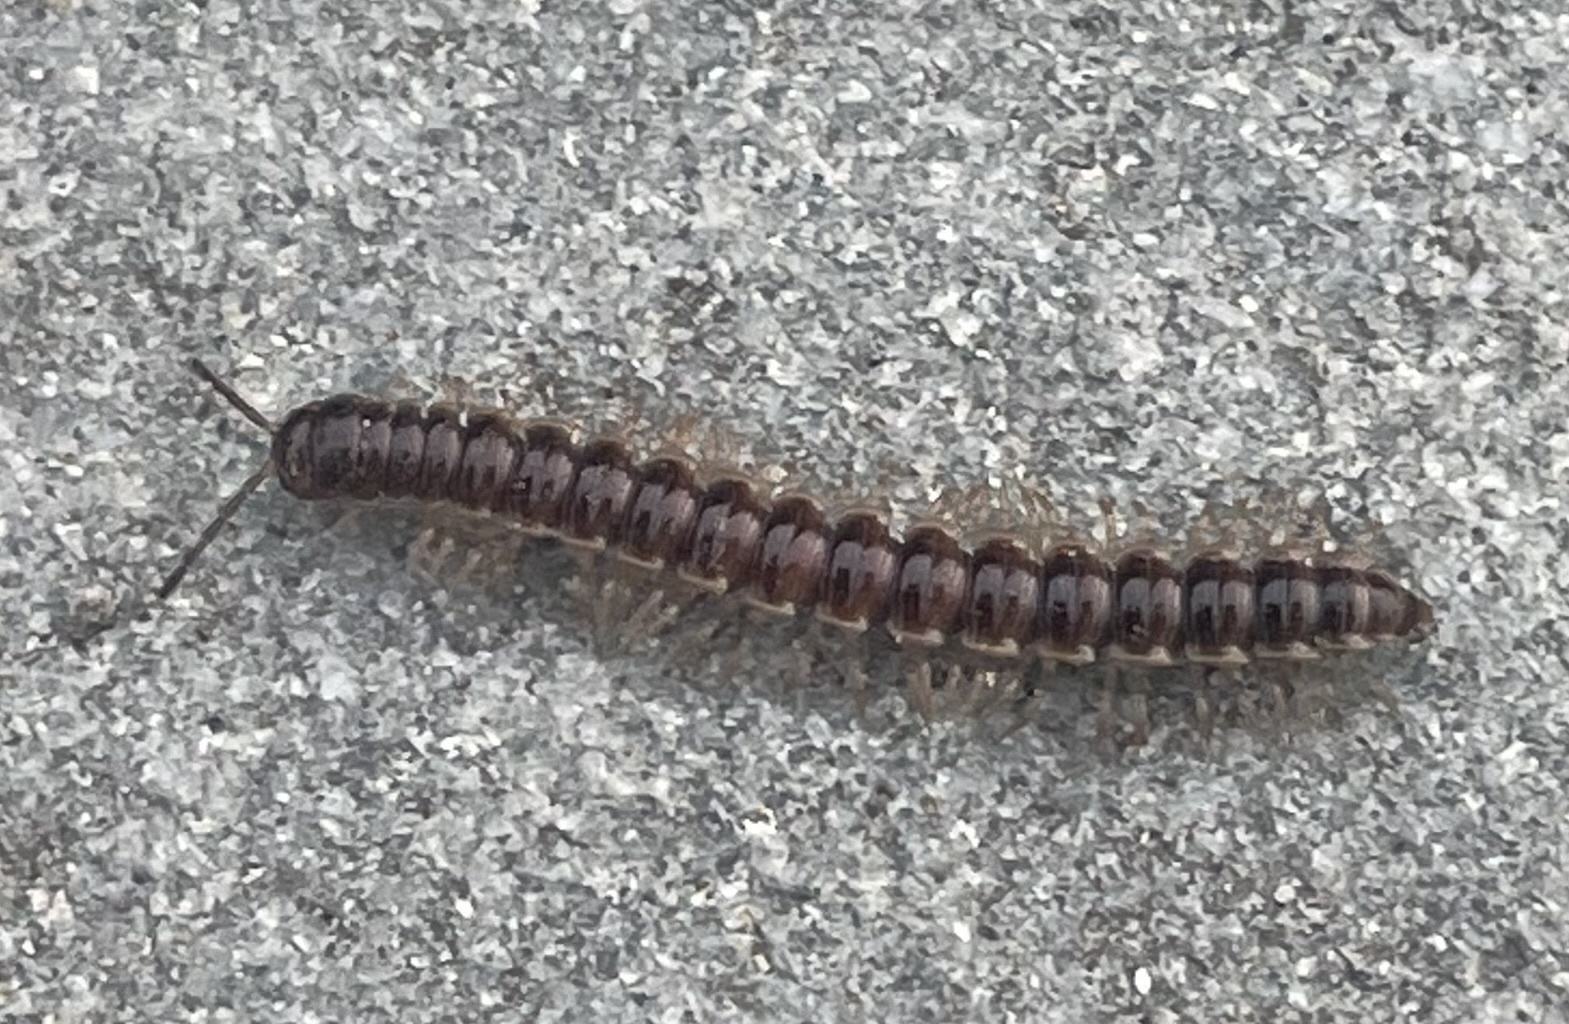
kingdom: Animalia
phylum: Arthropoda
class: Diplopoda
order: Polydesmida
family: Paradoxosomatidae
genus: Oxidus
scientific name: Oxidus gracilis
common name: Greenhouse millipede
